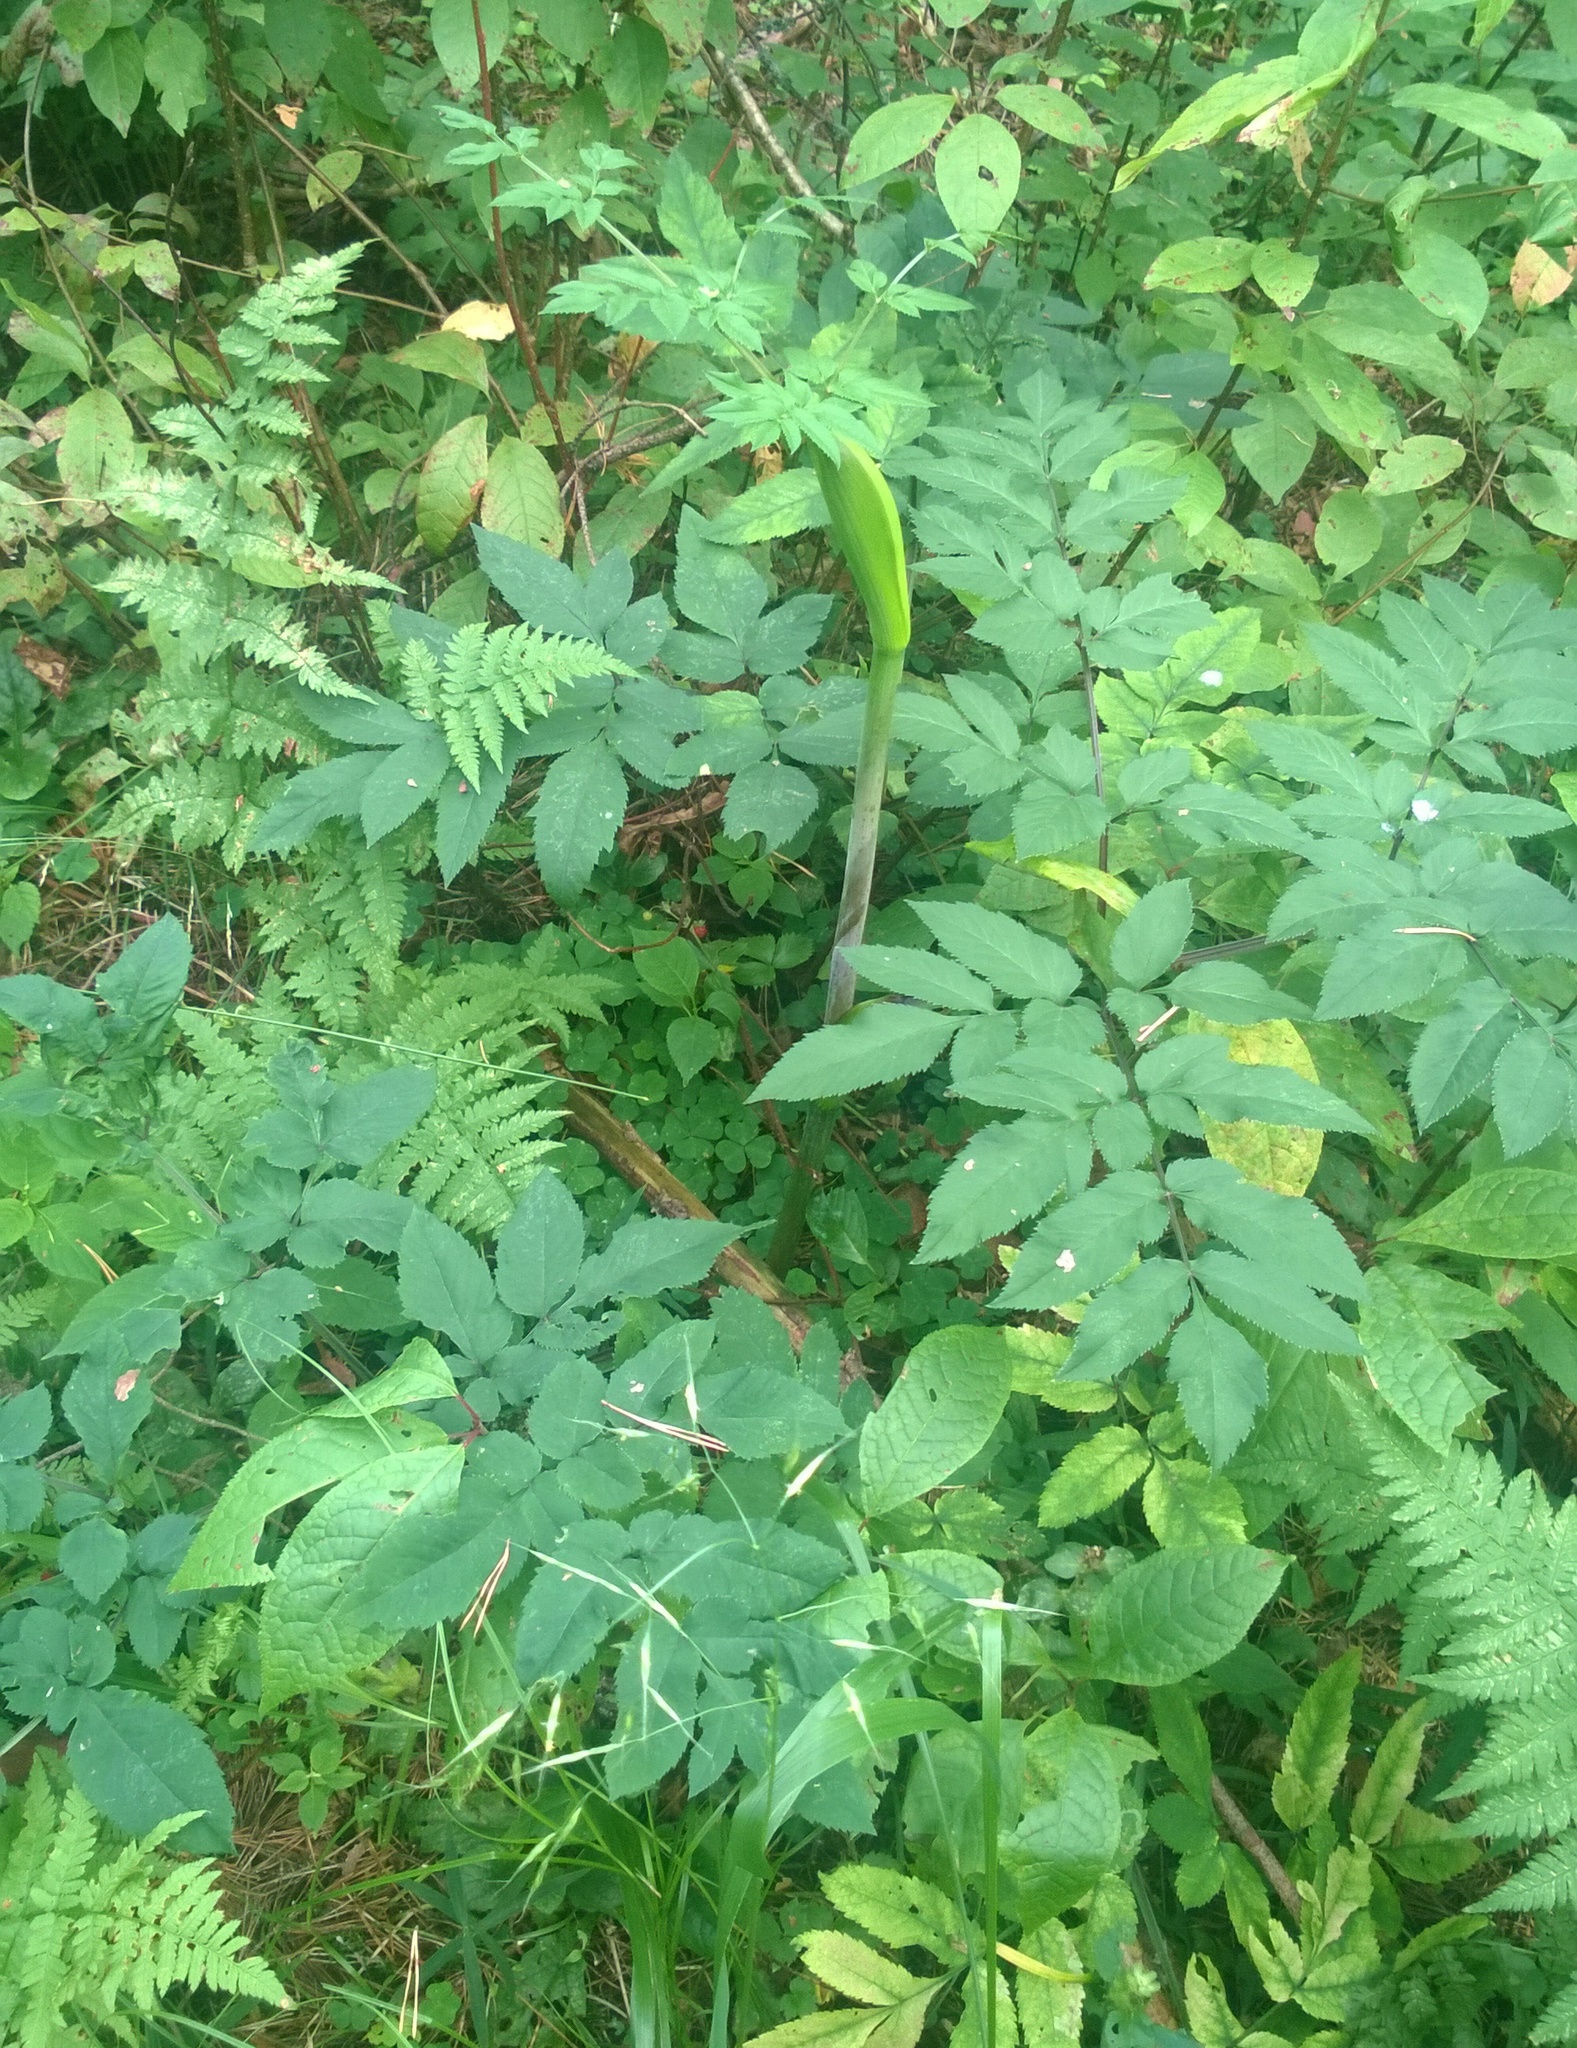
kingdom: Plantae
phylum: Tracheophyta
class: Magnoliopsida
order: Apiales
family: Apiaceae
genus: Angelica
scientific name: Angelica sylvestris
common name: Wild angelica
